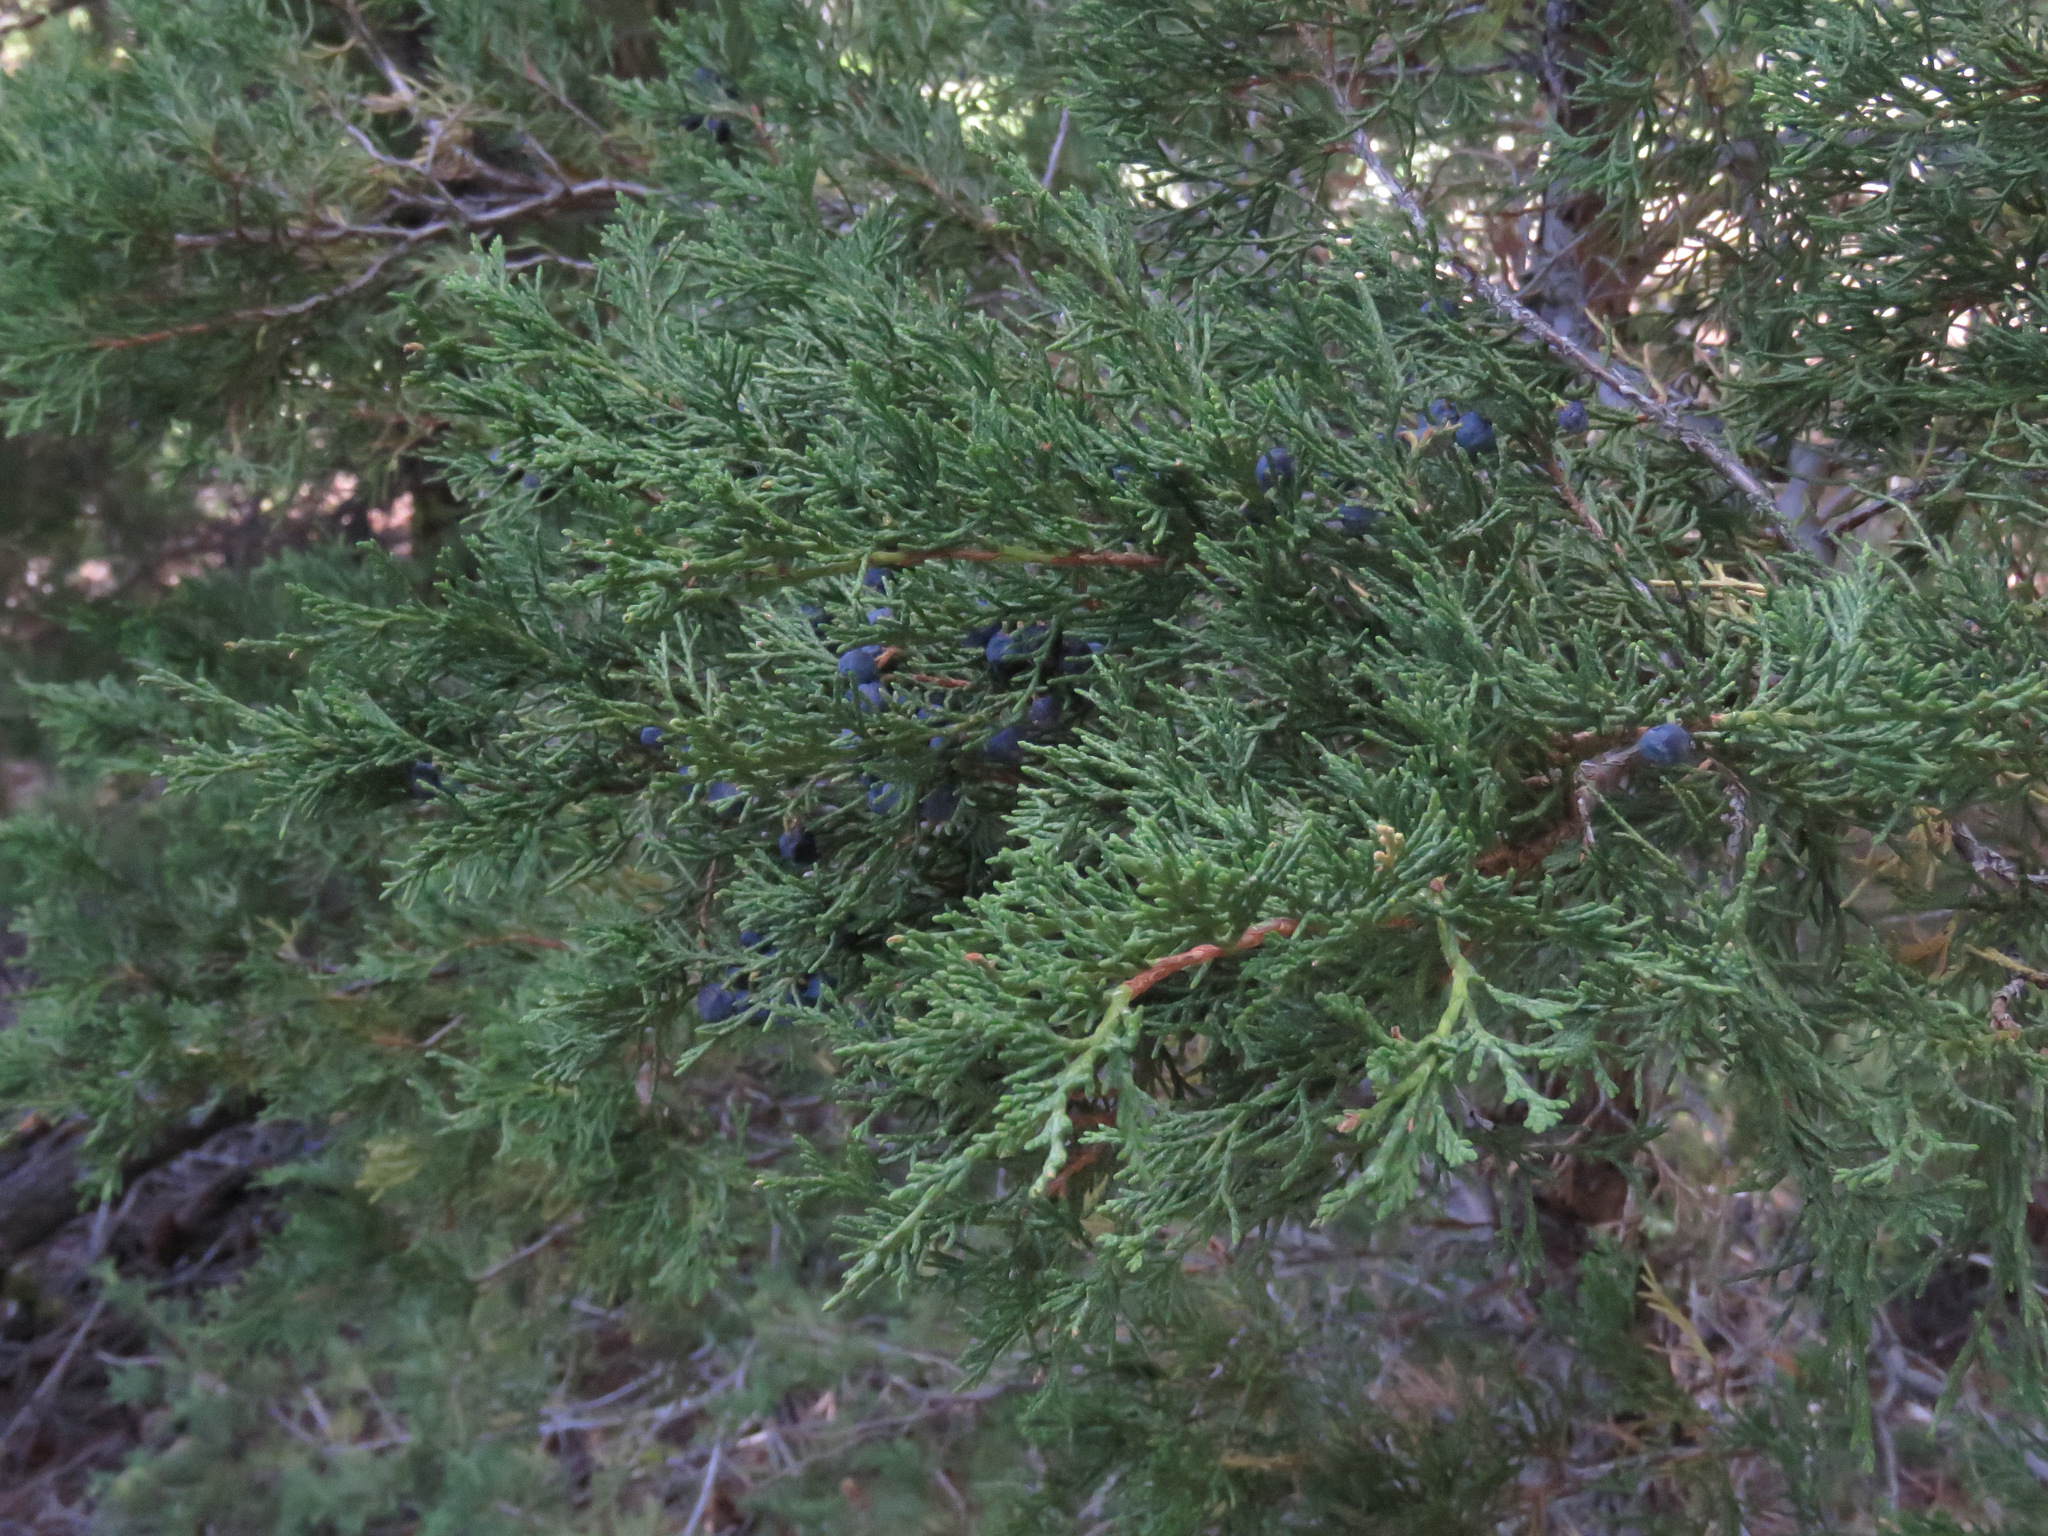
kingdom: Plantae
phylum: Tracheophyta
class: Pinopsida
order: Pinales
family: Cupressaceae
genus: Juniperus
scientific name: Juniperus scopulorum
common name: Rocky mountain juniper
